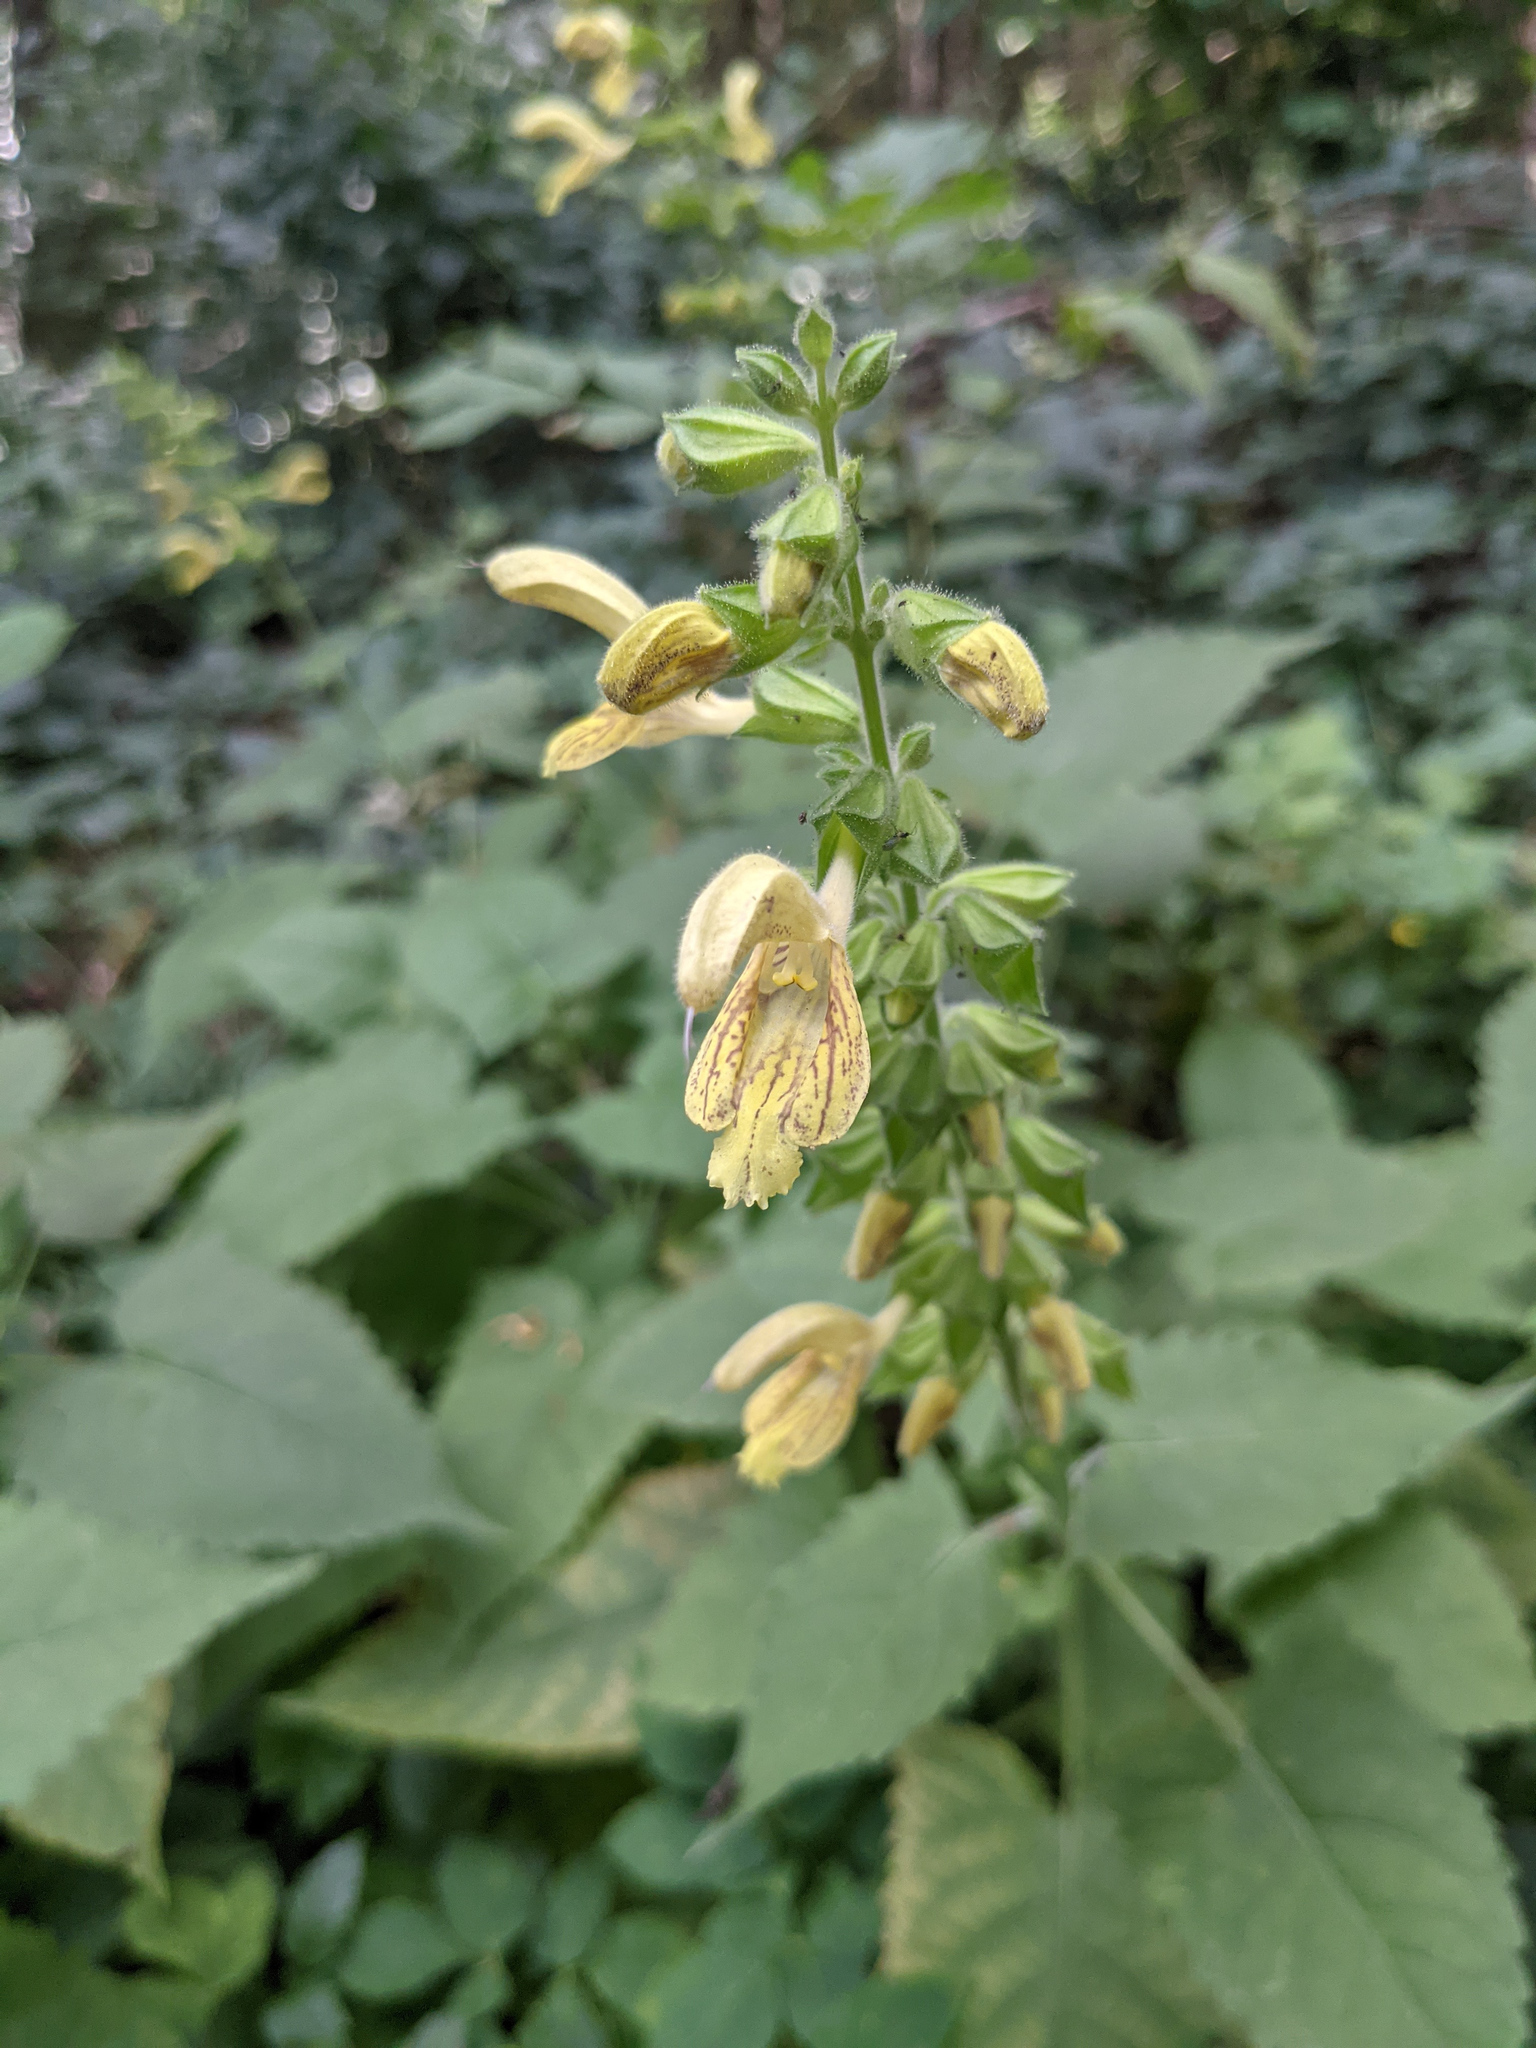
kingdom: Plantae
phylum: Tracheophyta
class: Magnoliopsida
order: Lamiales
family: Lamiaceae
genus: Salvia
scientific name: Salvia glutinosa
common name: Sticky clary
